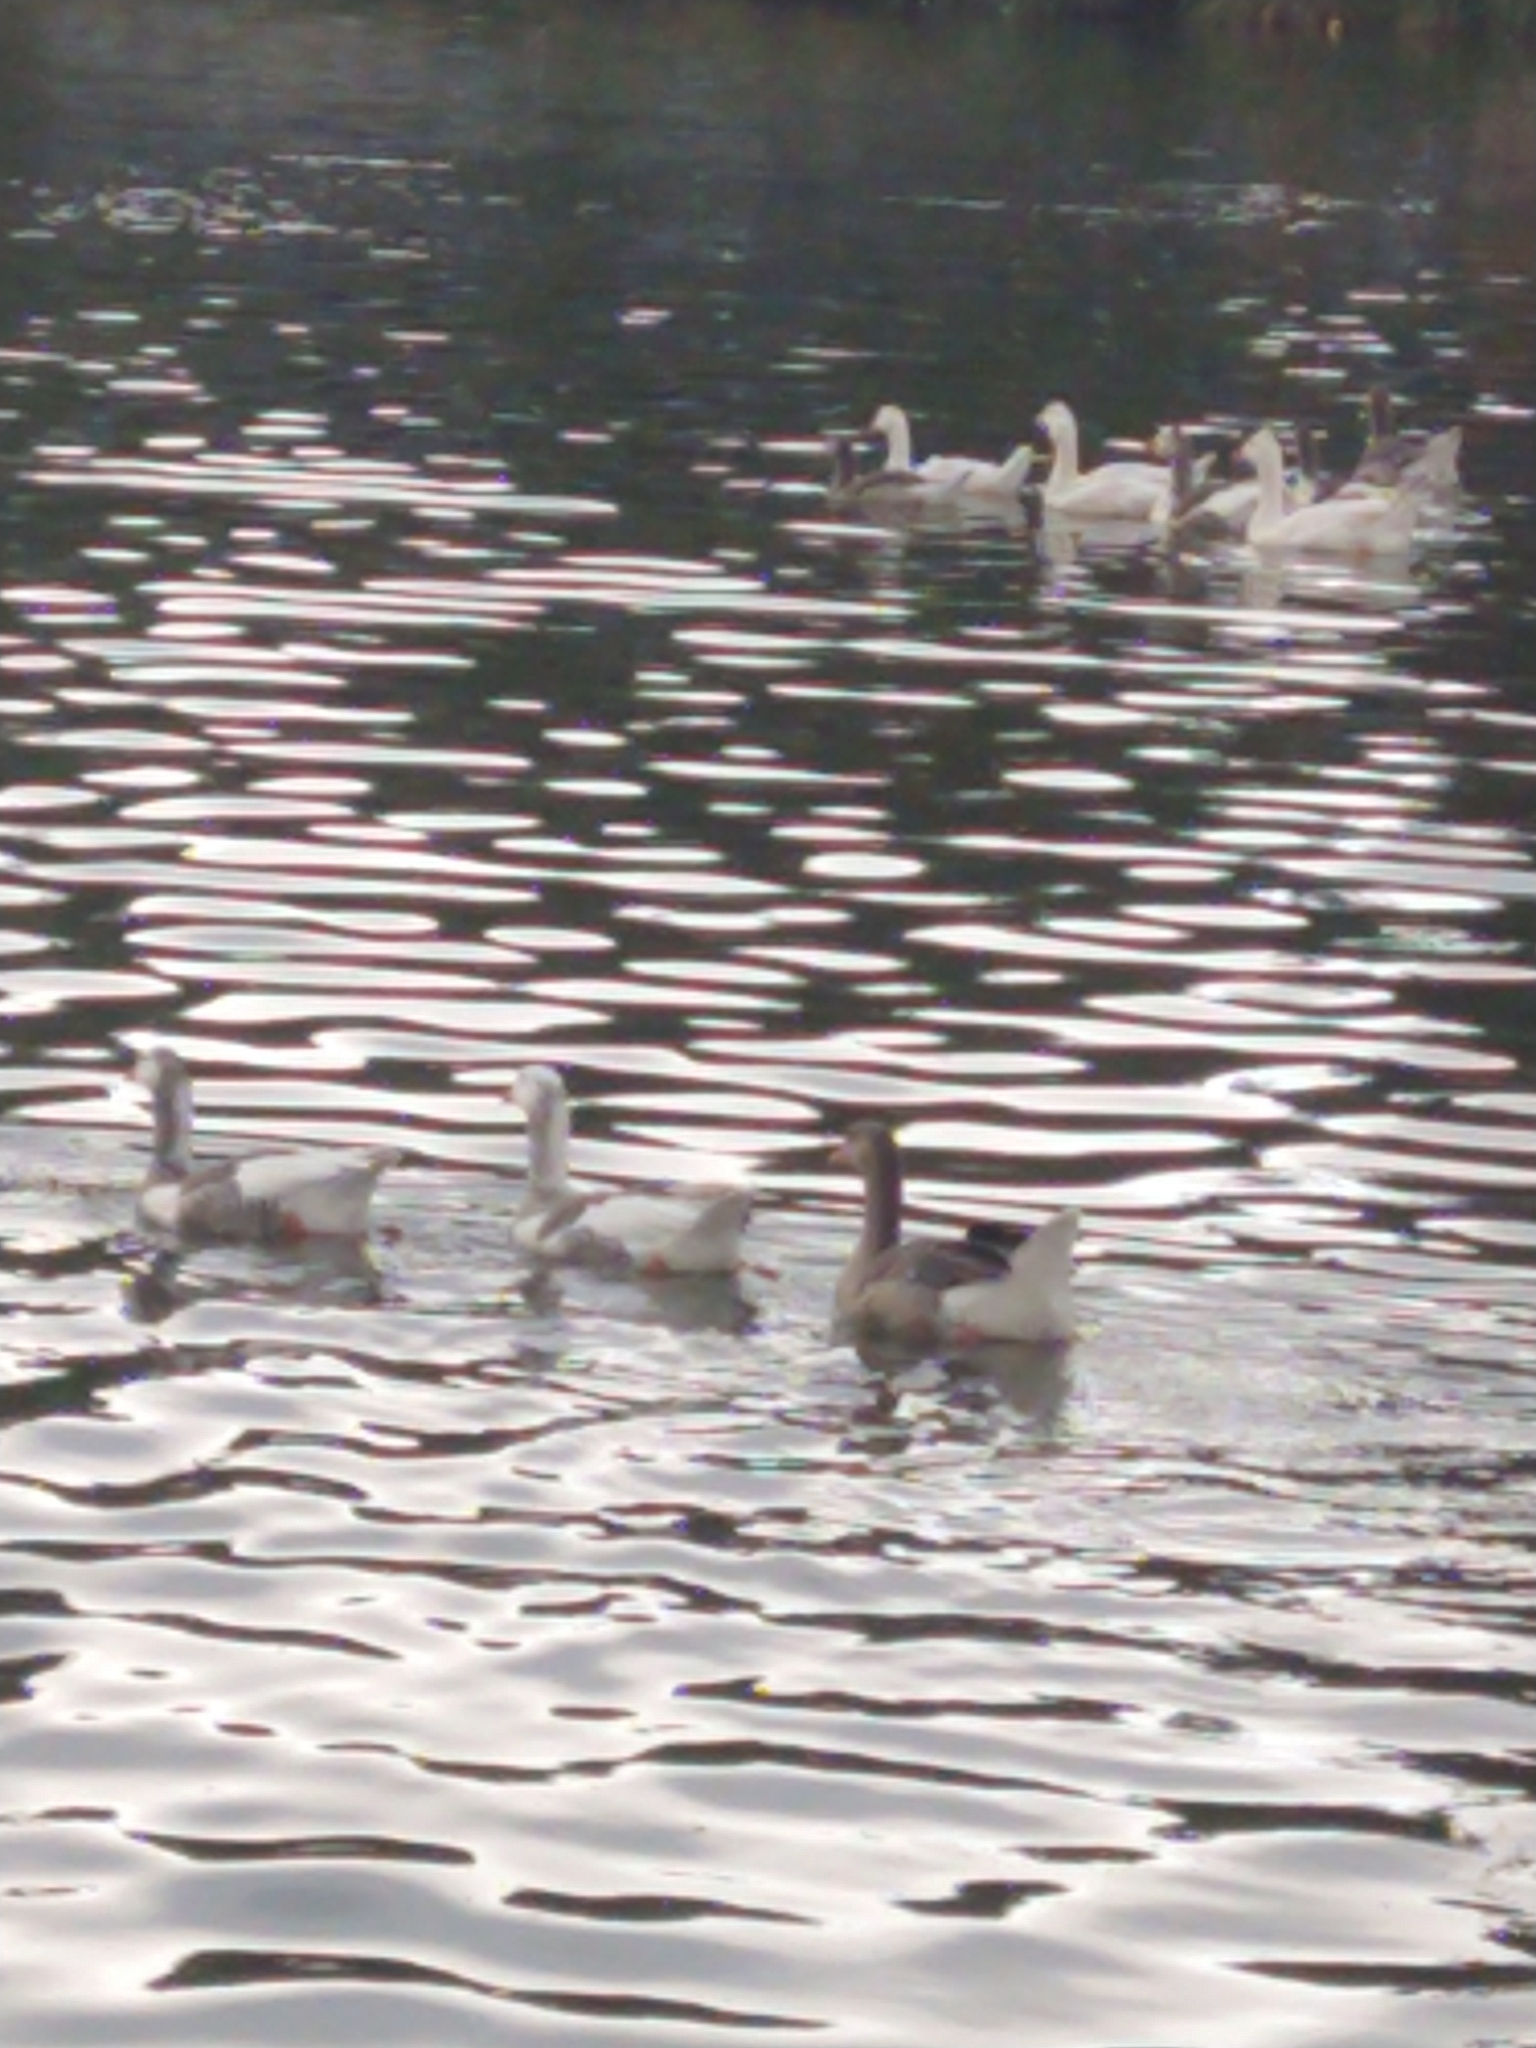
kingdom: Animalia
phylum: Chordata
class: Aves
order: Anseriformes
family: Anatidae
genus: Anser
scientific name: Anser anser
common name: Greylag goose
